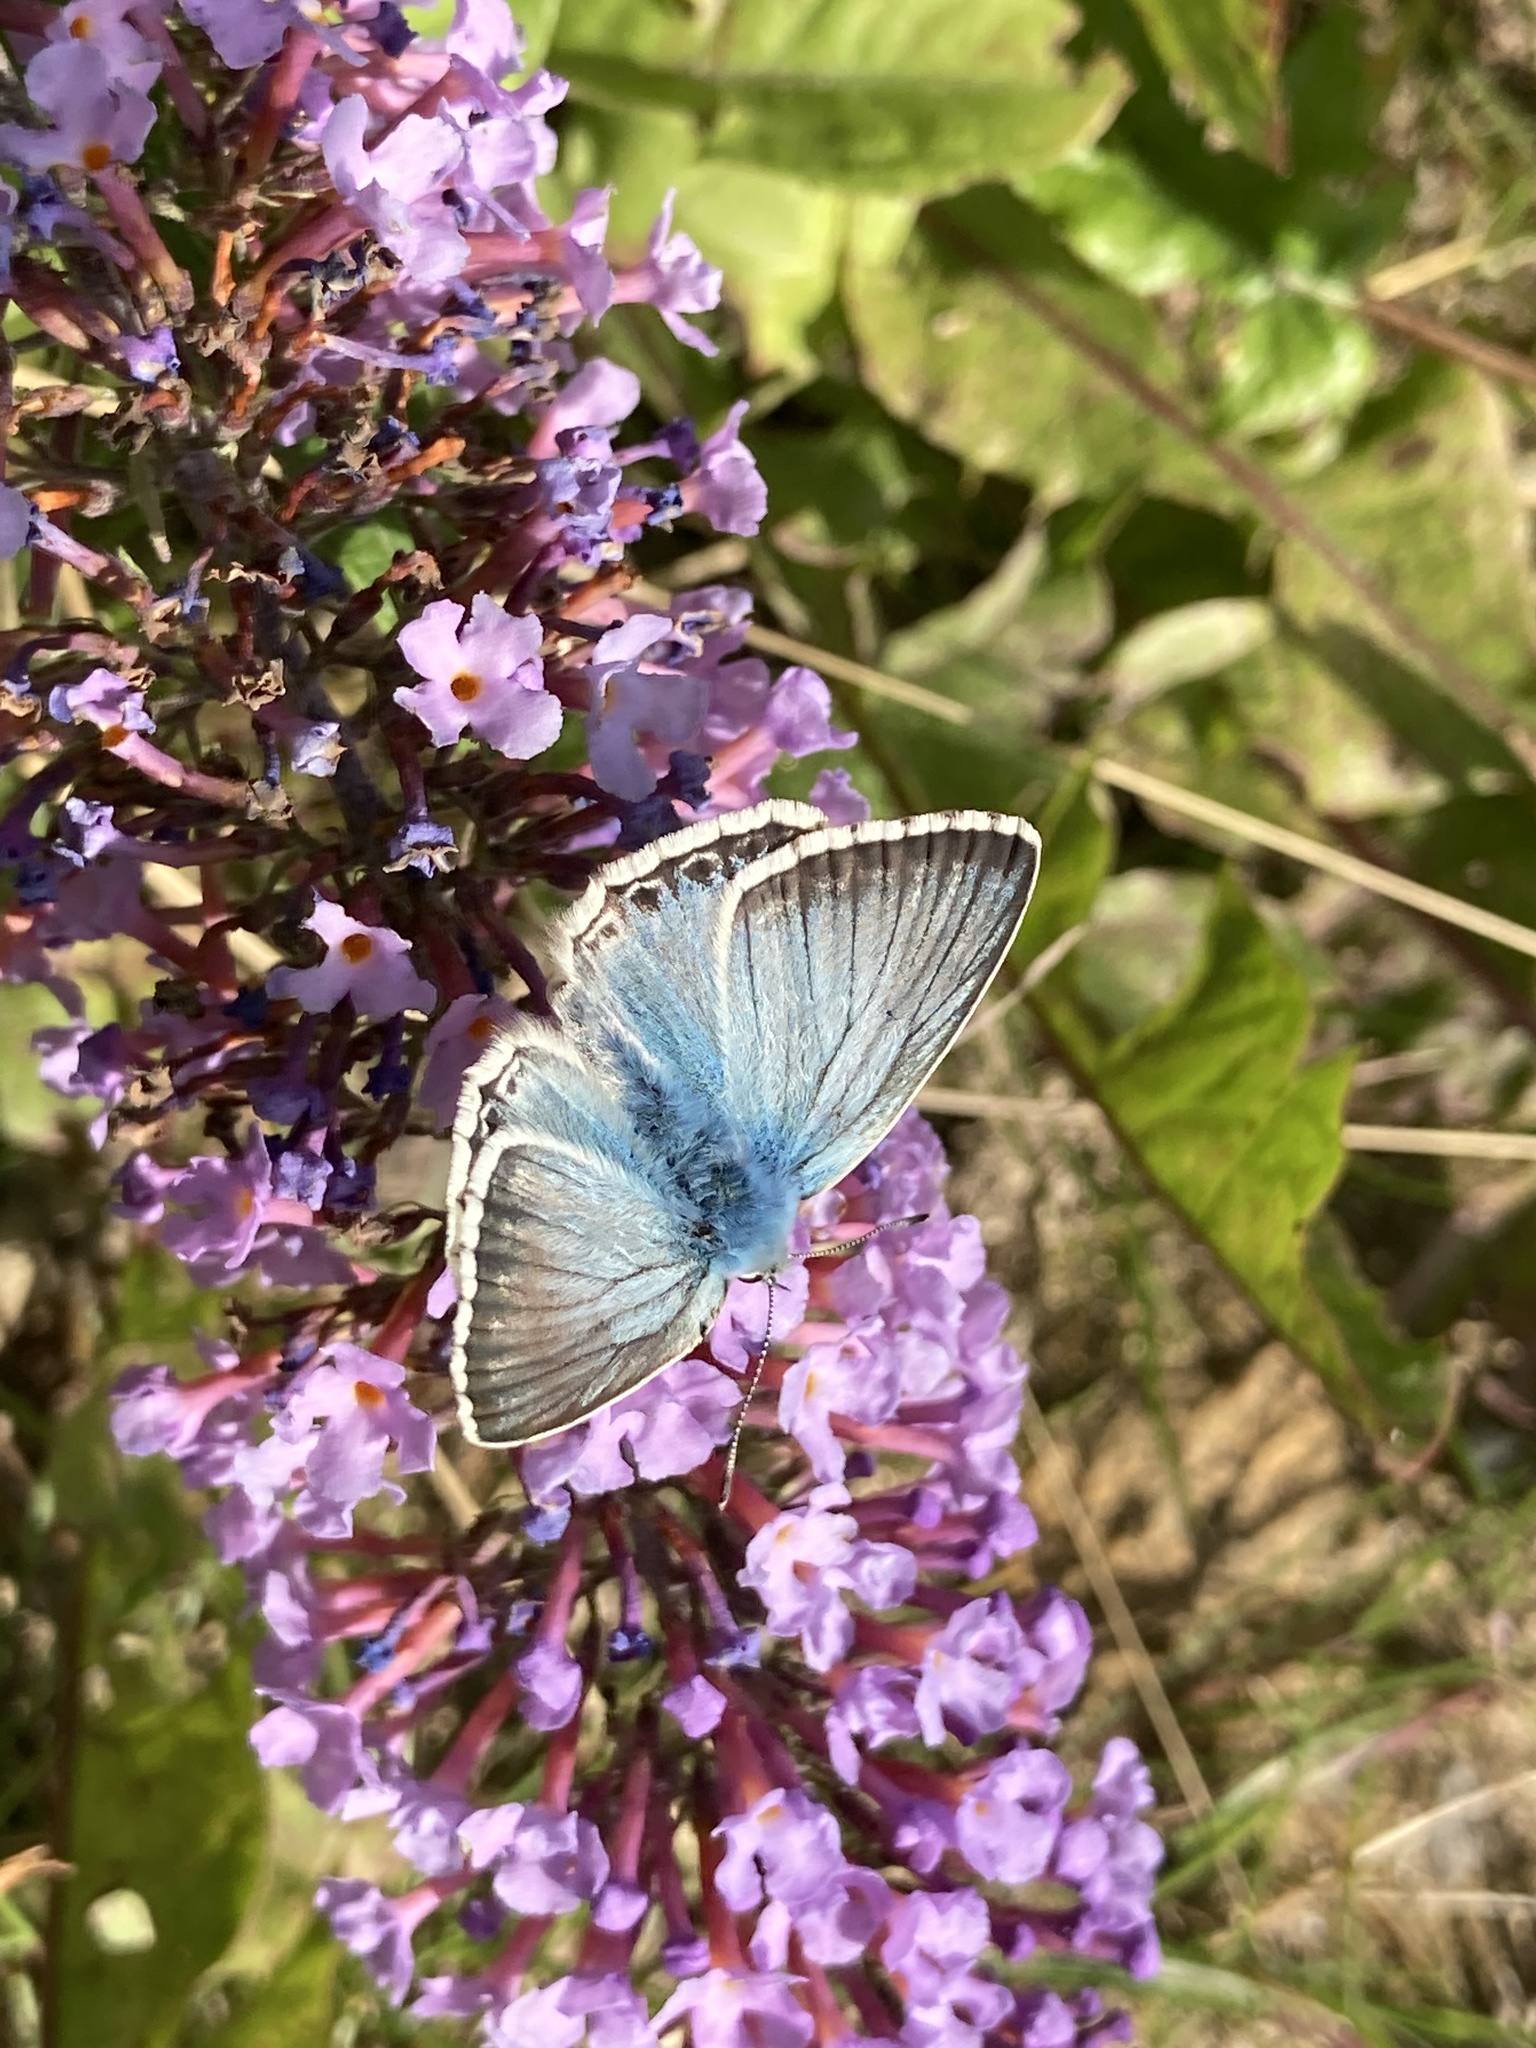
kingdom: Animalia
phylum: Arthropoda
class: Insecta
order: Lepidoptera
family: Lycaenidae
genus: Lysandra
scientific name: Lysandra coridon
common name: Chalkhill blue
